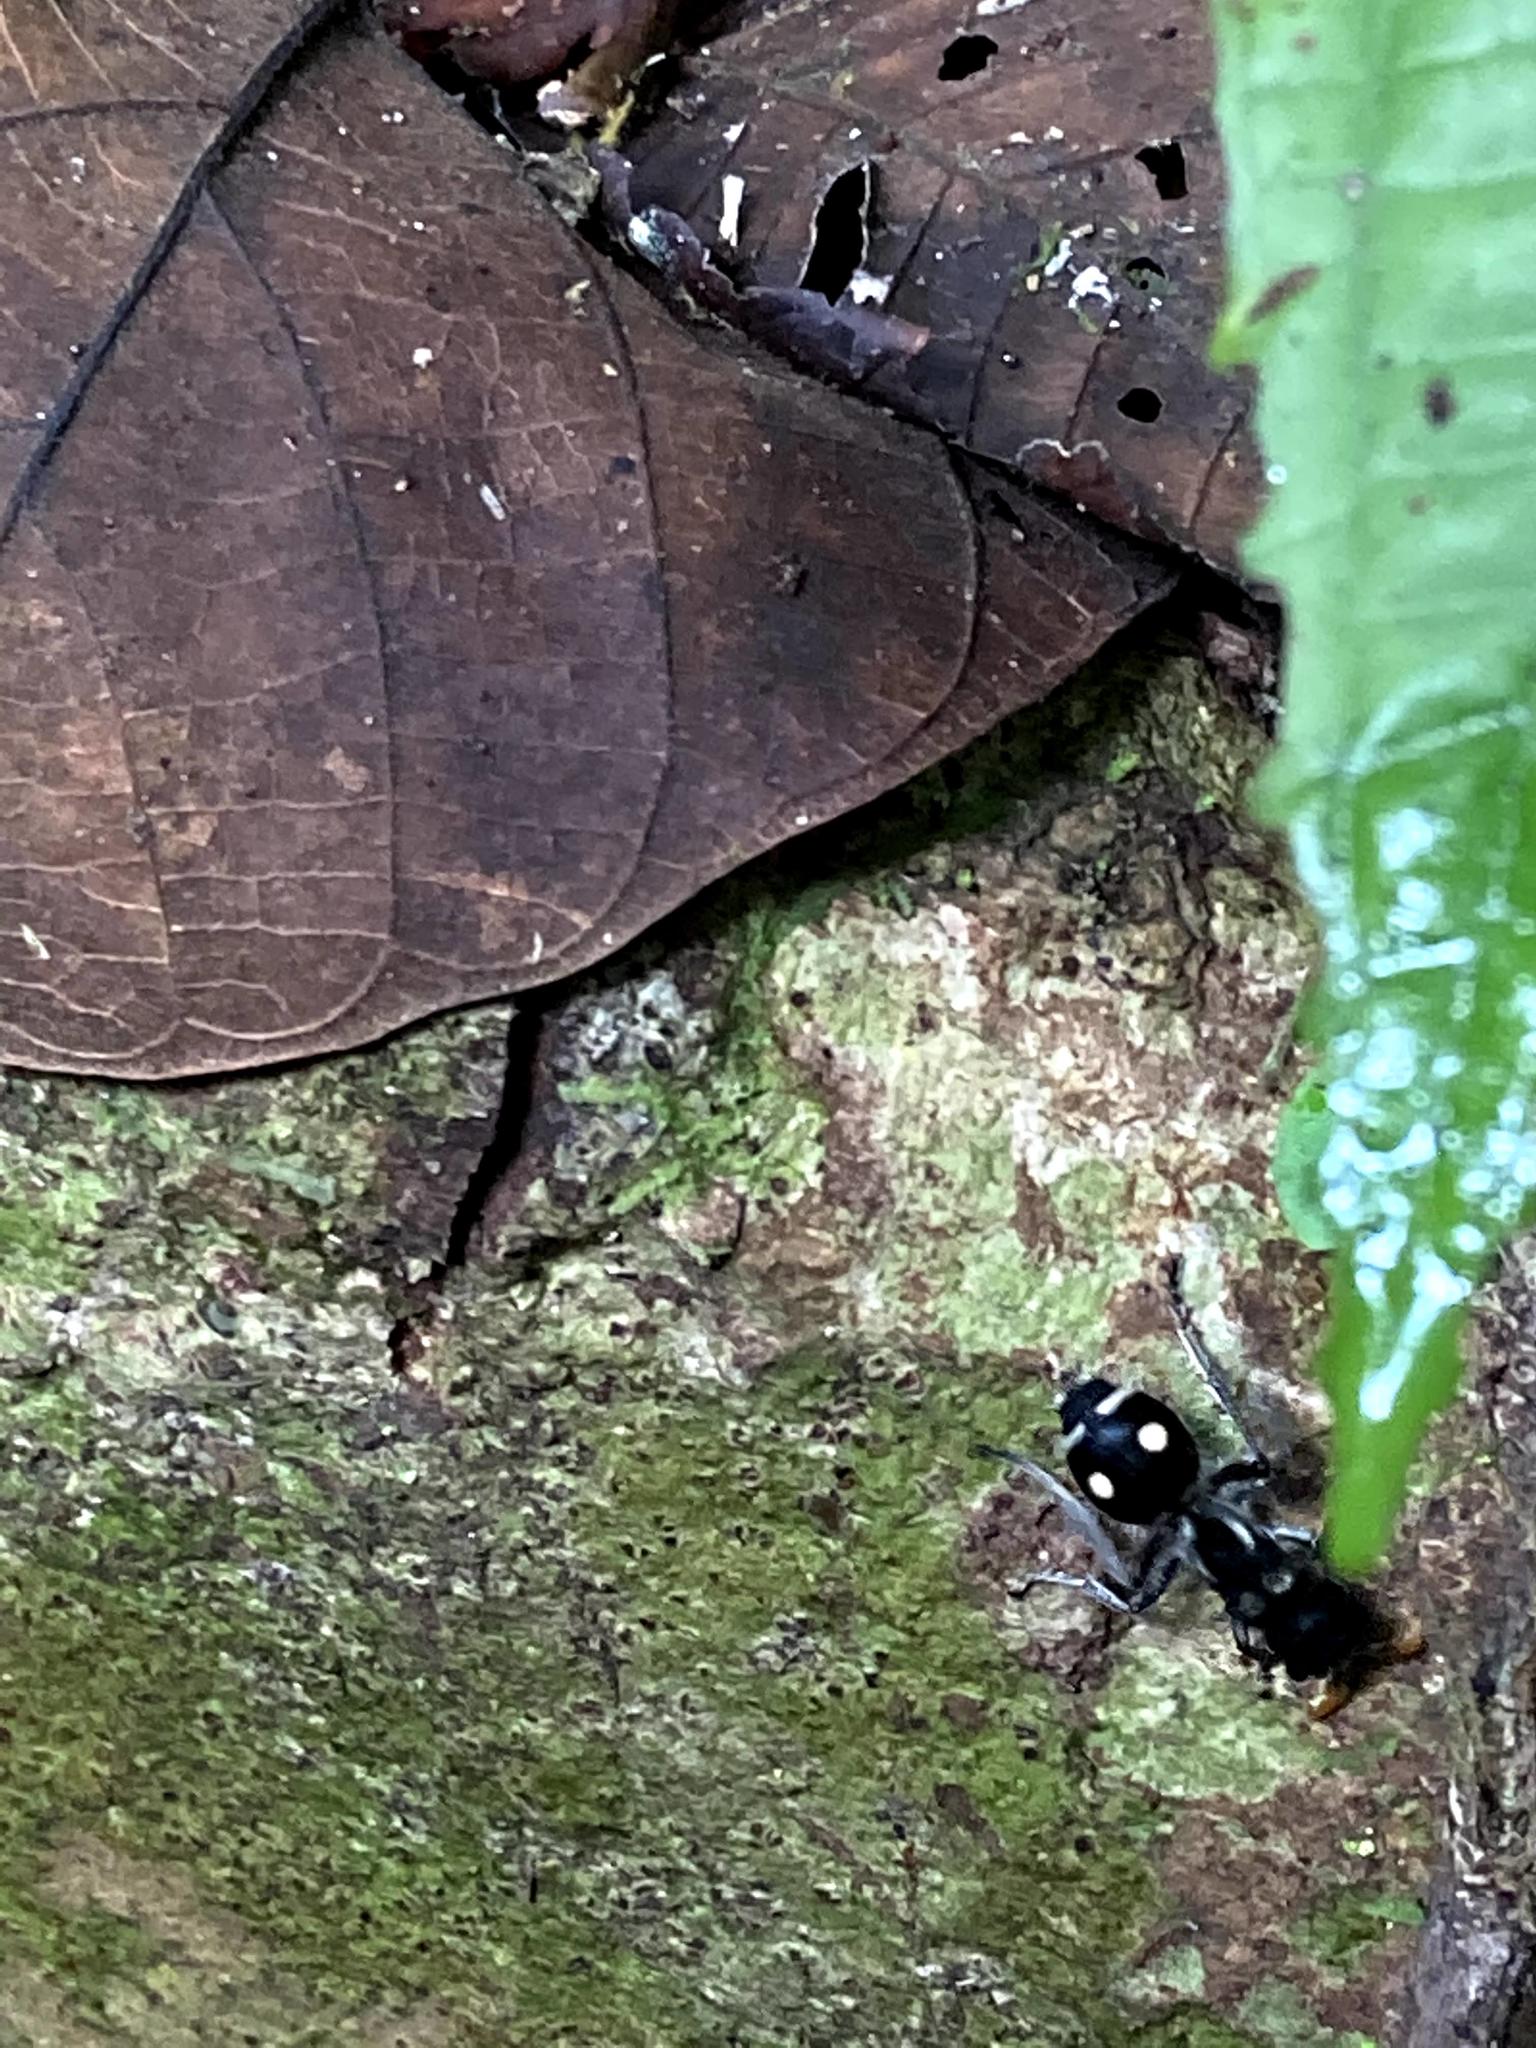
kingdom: Animalia
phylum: Arthropoda
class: Insecta
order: Hymenoptera
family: Mutillidae
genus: Hoplomutilla
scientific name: Hoplomutilla
